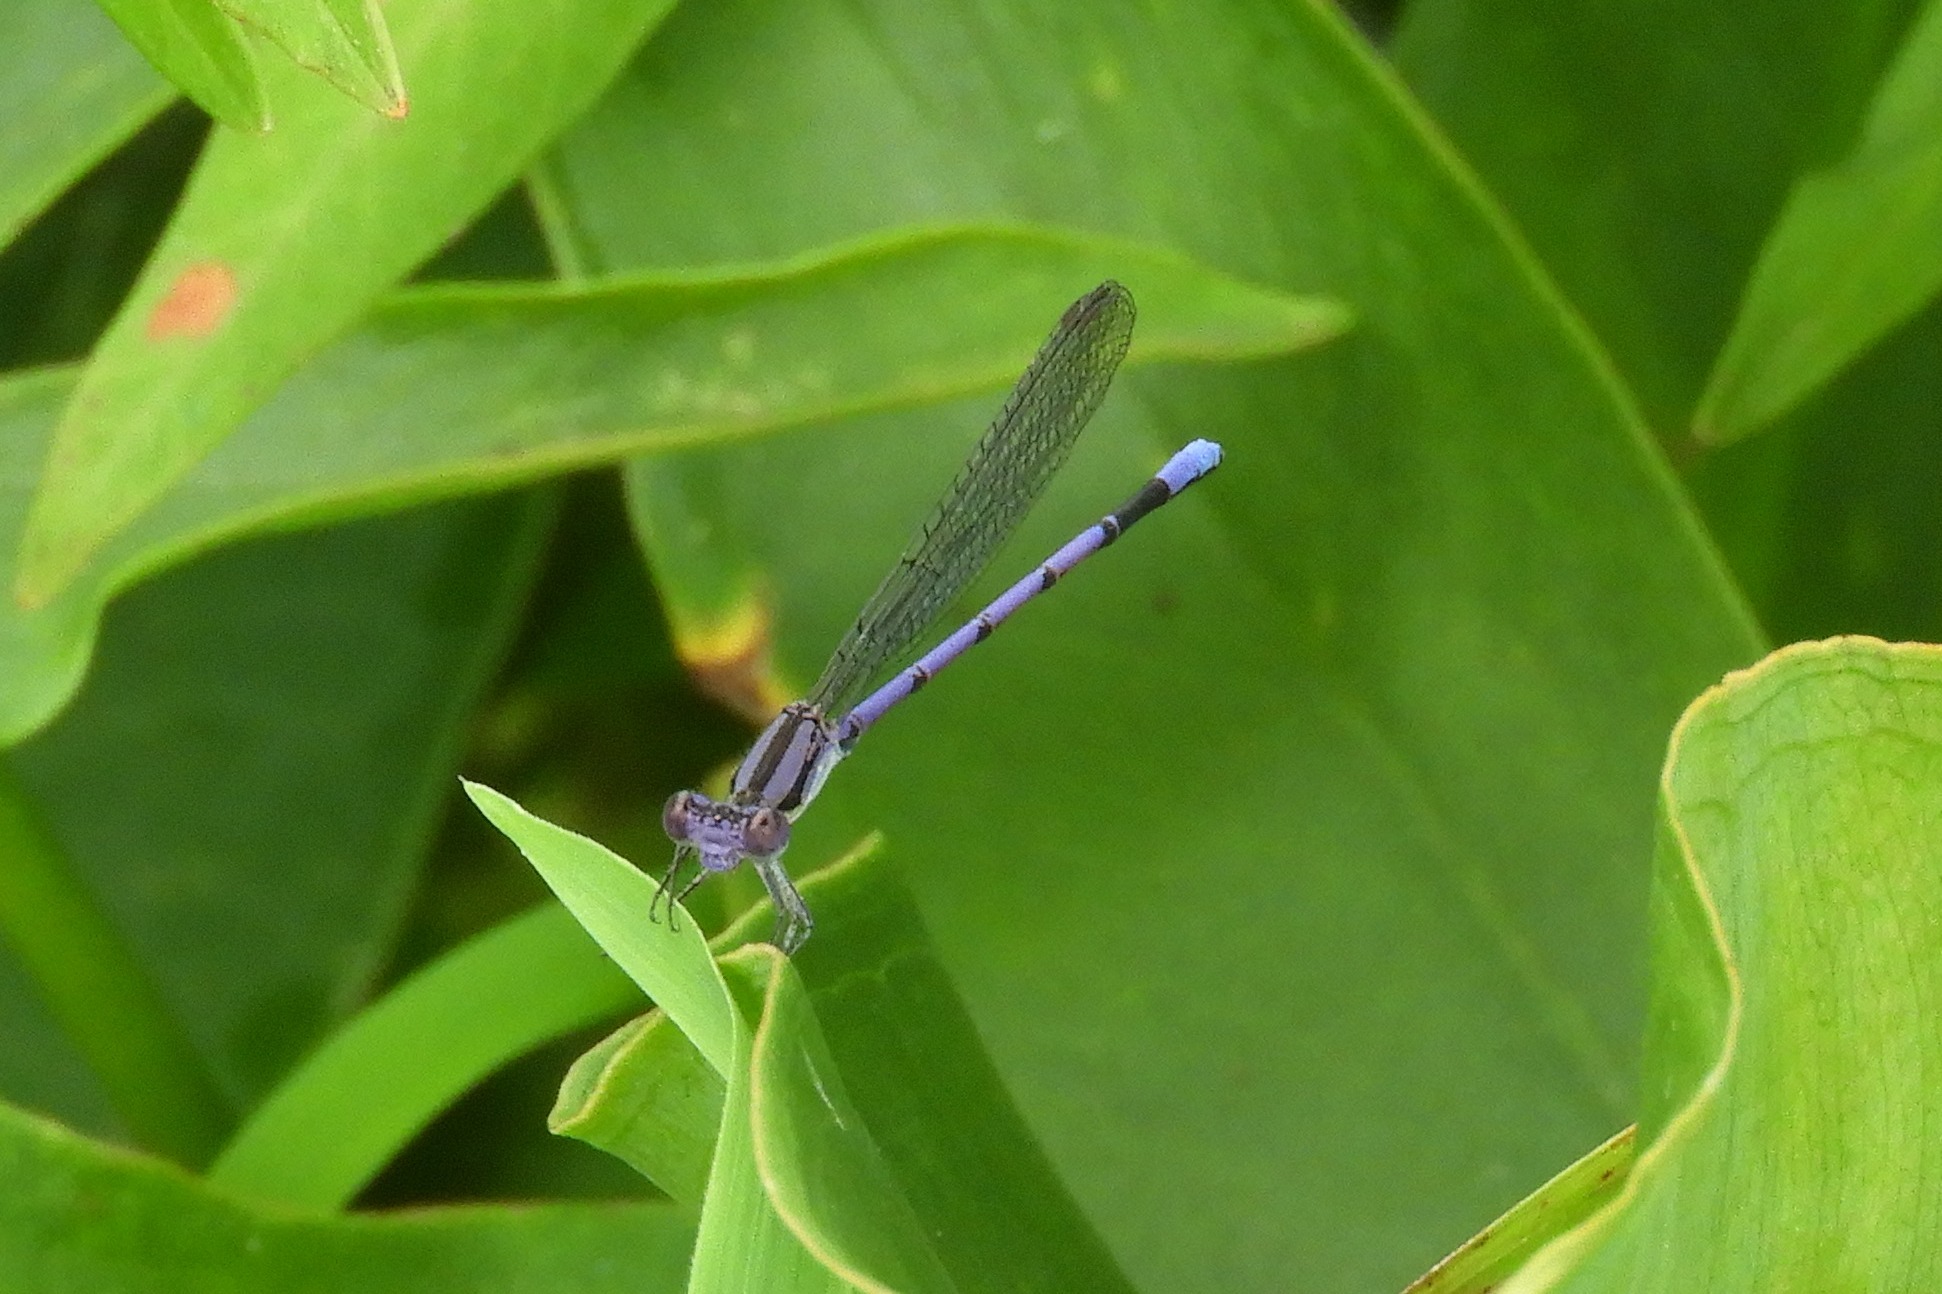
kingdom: Animalia
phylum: Arthropoda
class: Insecta
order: Odonata
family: Coenagrionidae
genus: Argia
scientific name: Argia fumipennis
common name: Variable dancer
